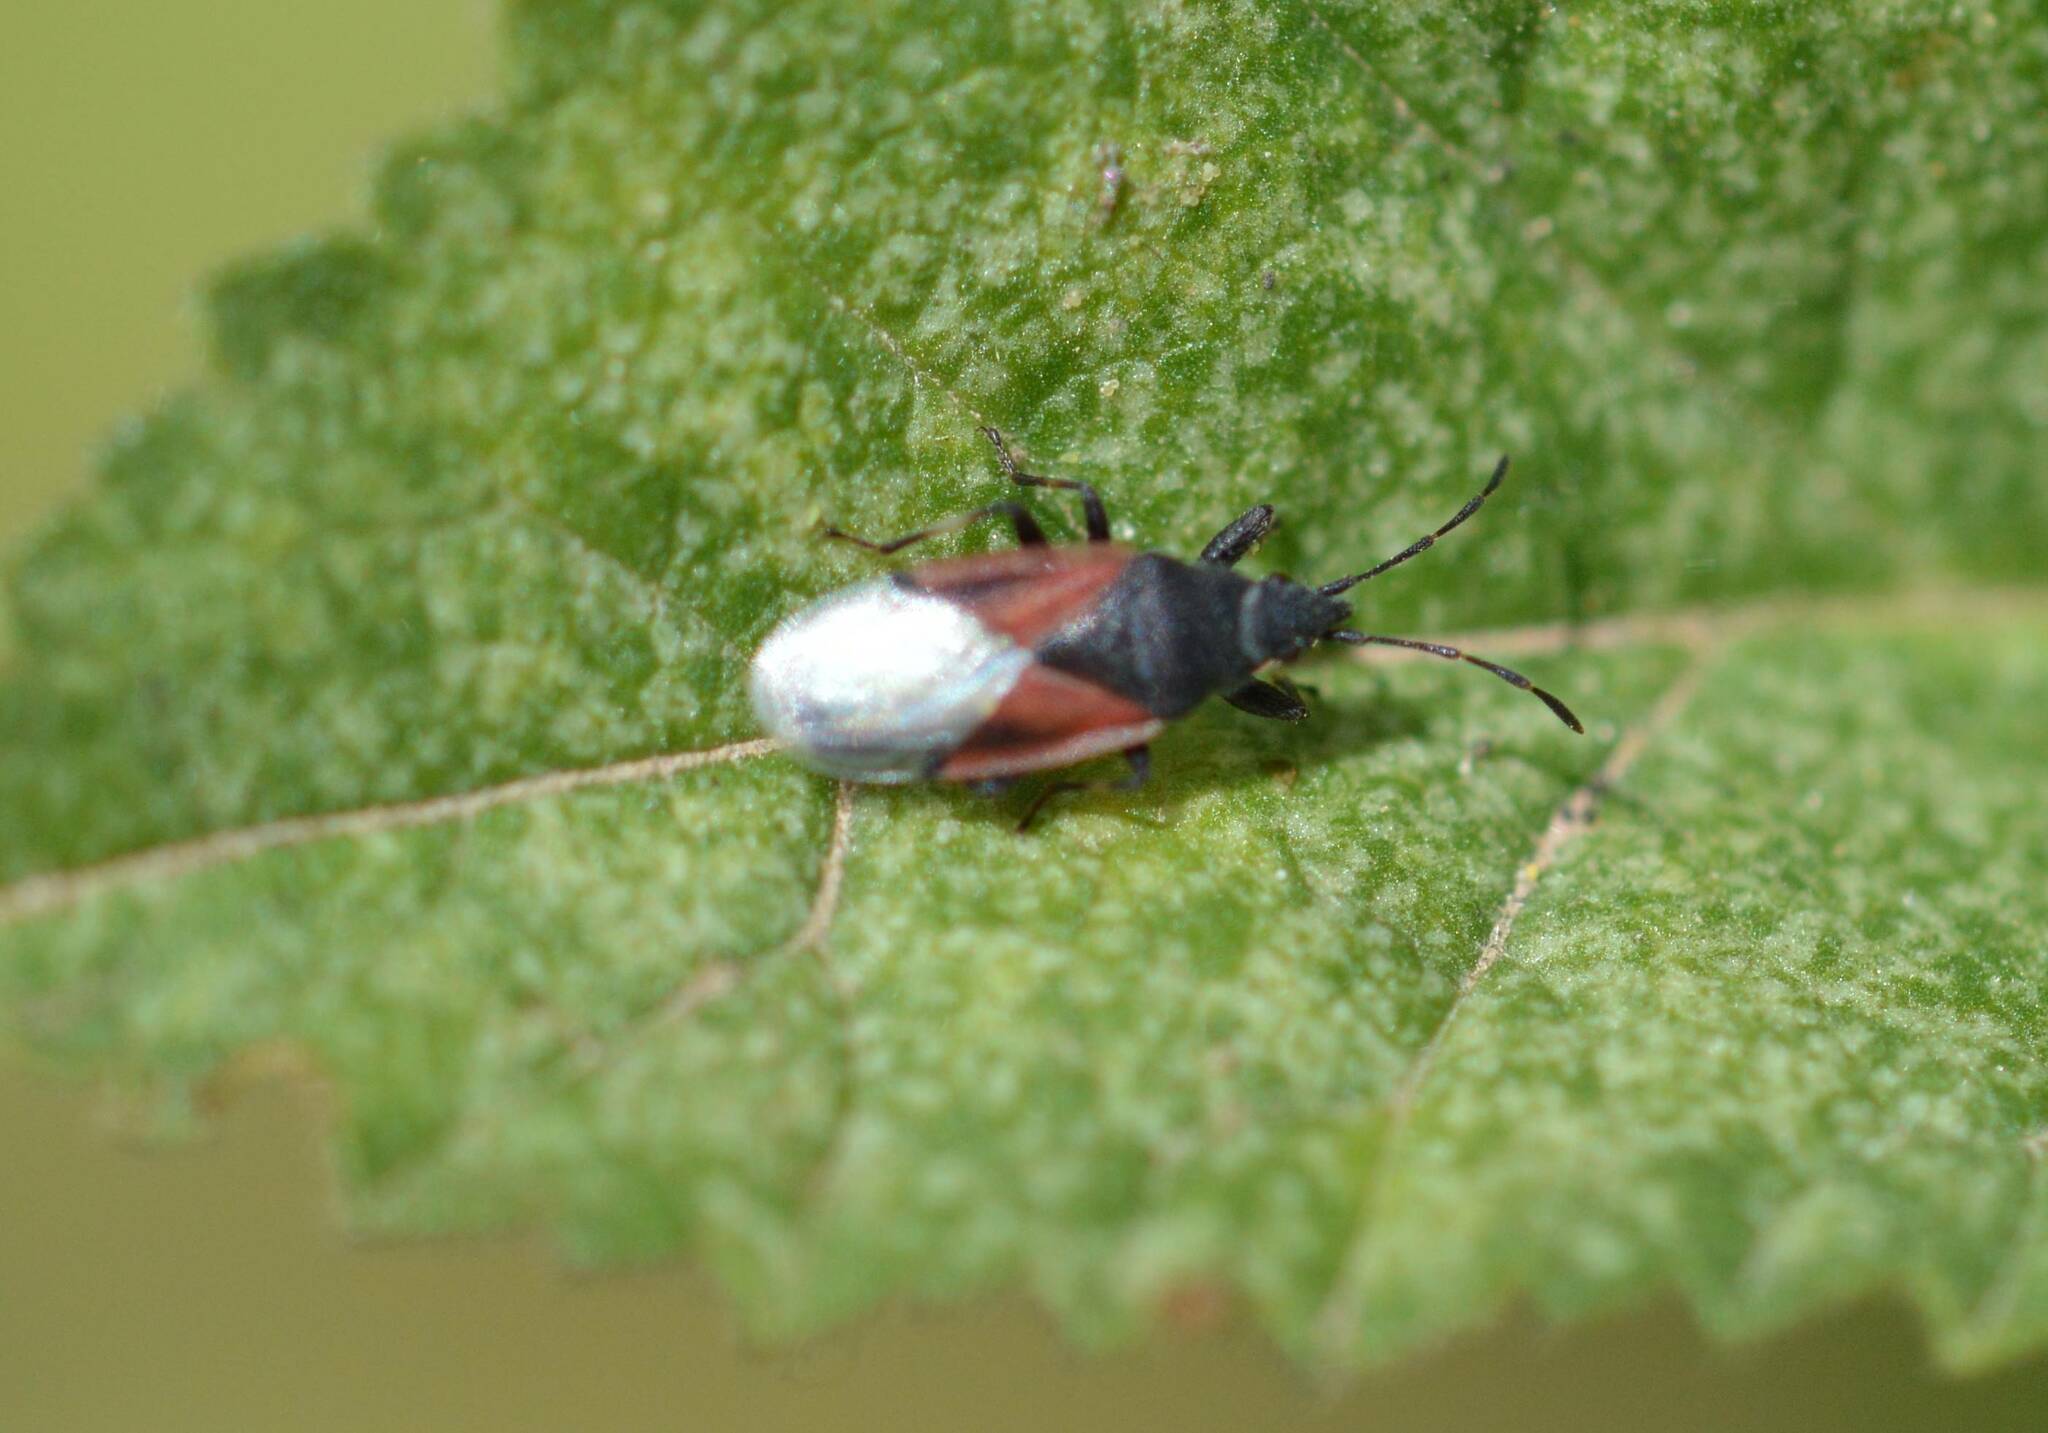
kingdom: Animalia
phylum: Arthropoda
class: Insecta
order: Hemiptera
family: Oxycarenidae
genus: Oxycarenus
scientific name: Oxycarenus lavaterae
